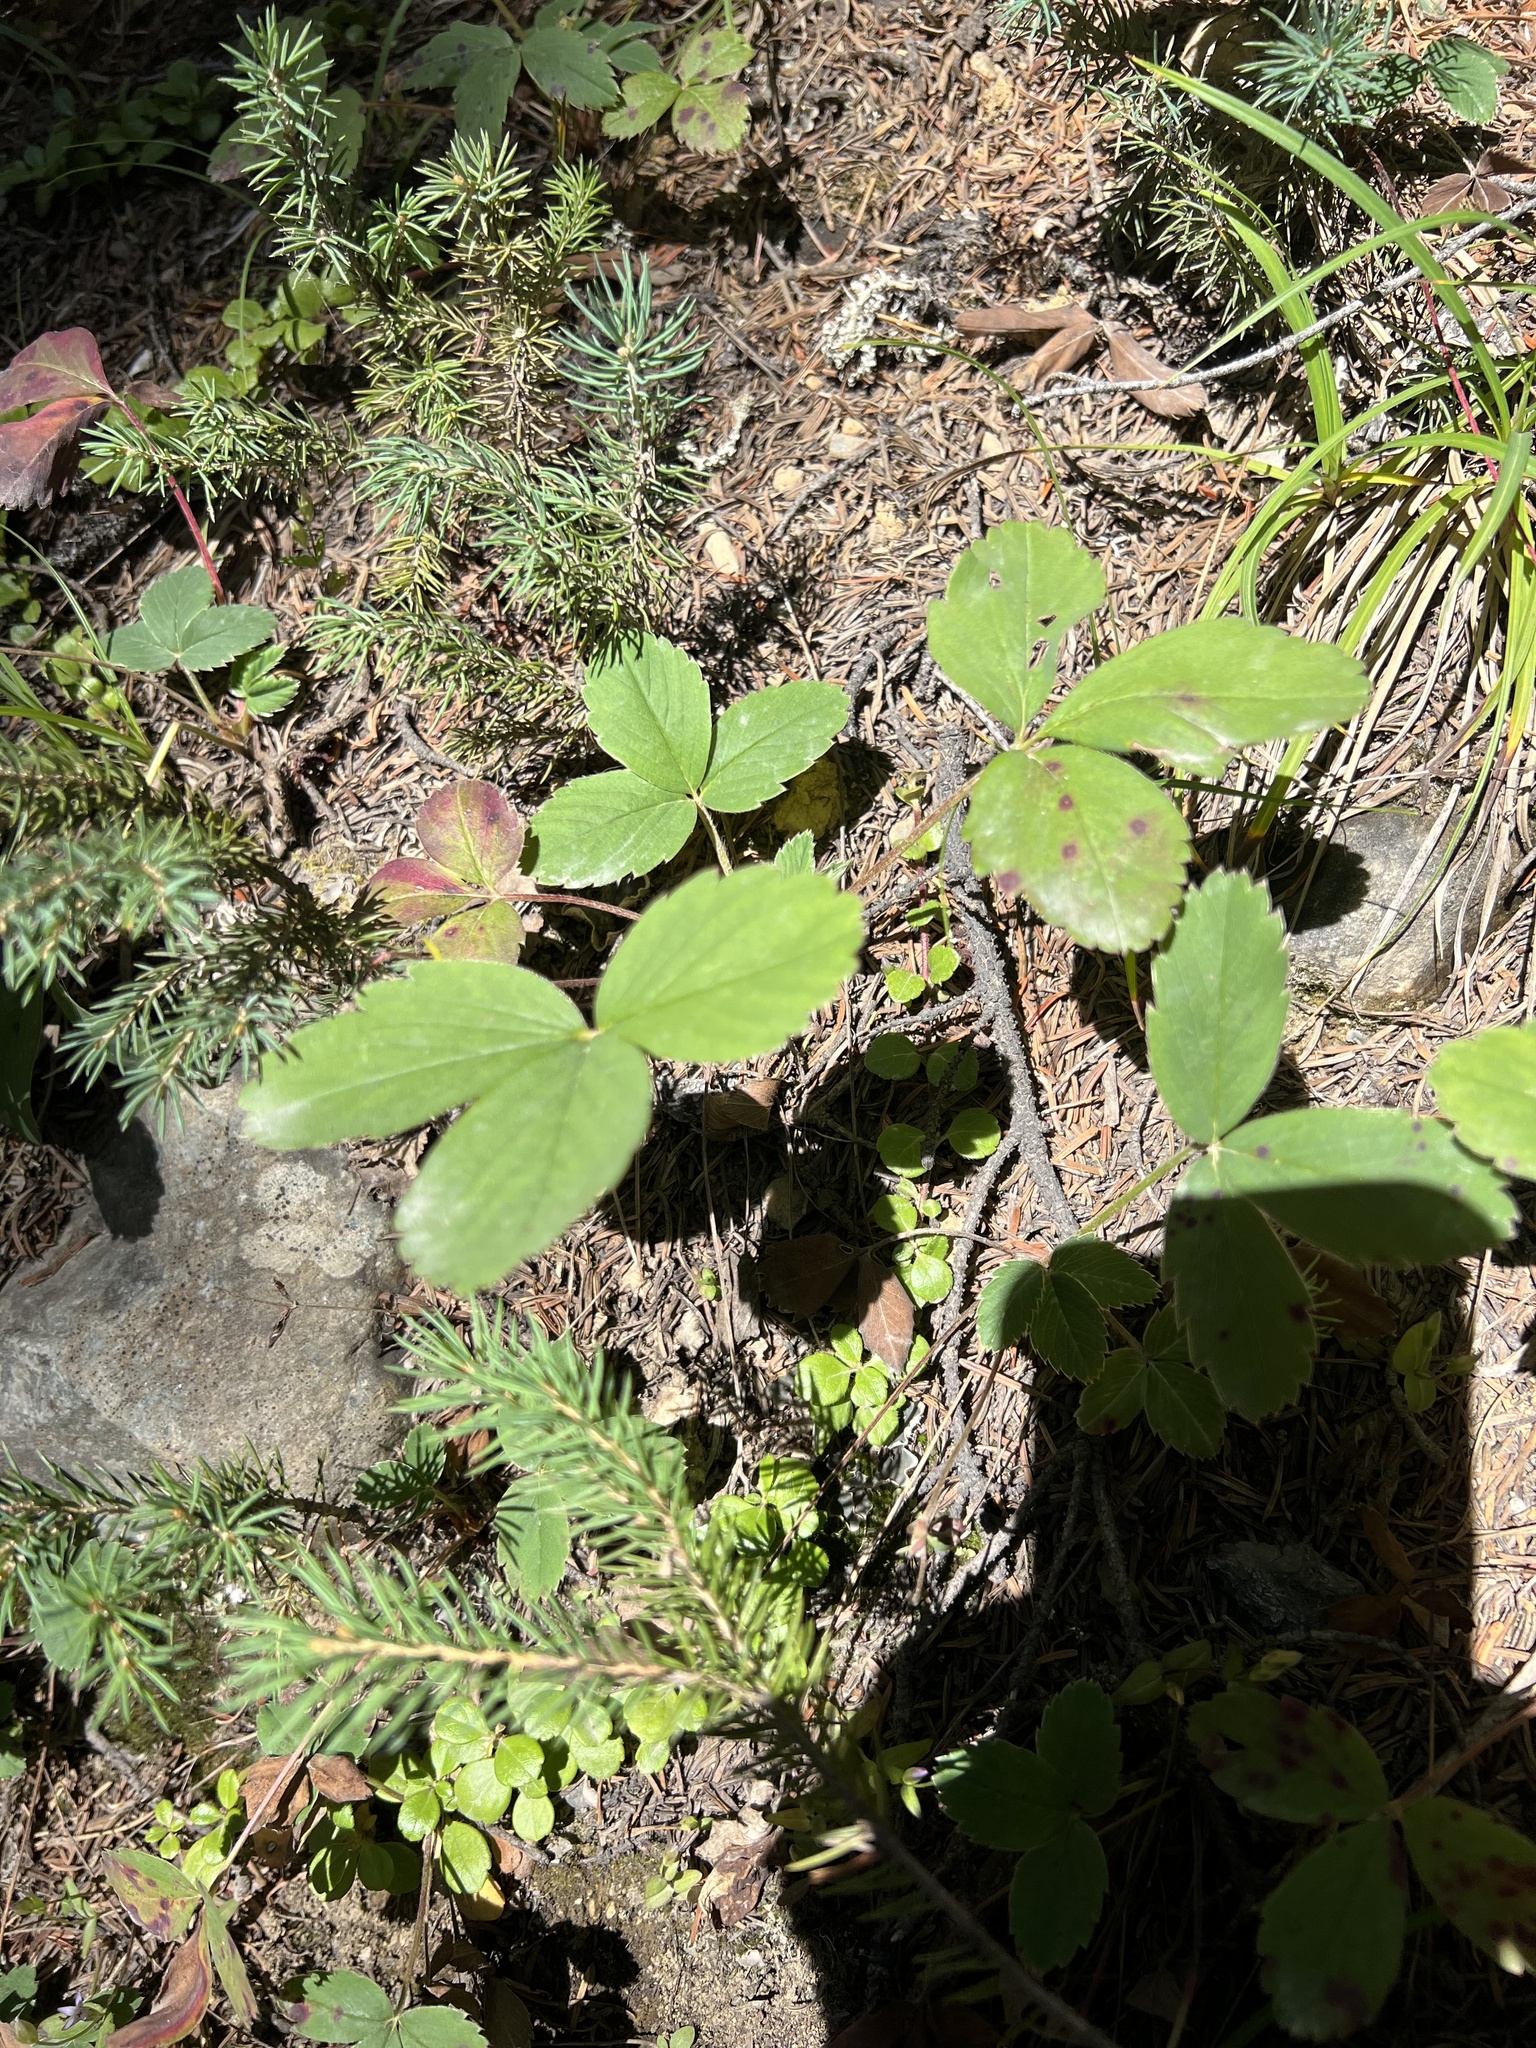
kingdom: Plantae
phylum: Tracheophyta
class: Magnoliopsida
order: Rosales
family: Rosaceae
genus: Fragaria
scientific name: Fragaria virginiana
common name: Thickleaved wild strawberry
